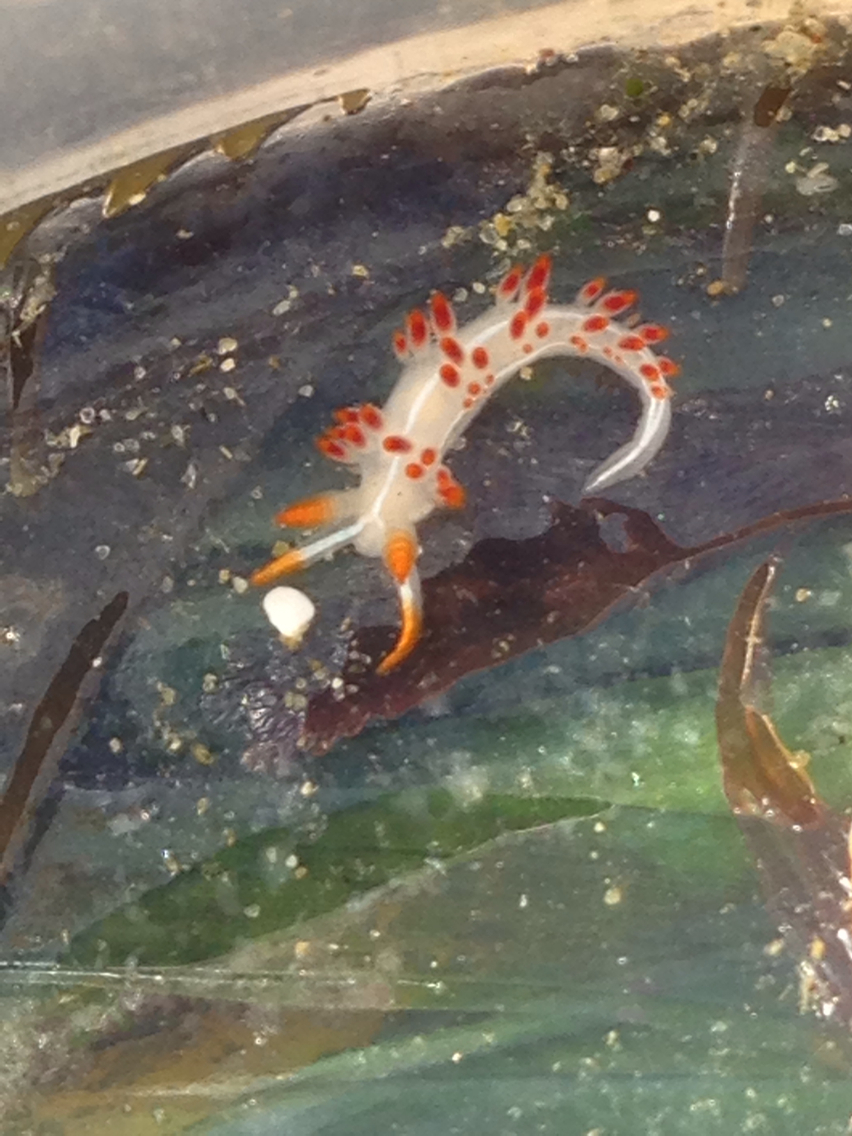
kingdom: Animalia
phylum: Mollusca
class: Gastropoda
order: Nudibranchia
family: Coryphellidae
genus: Coryphella
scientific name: Coryphella trilineata
